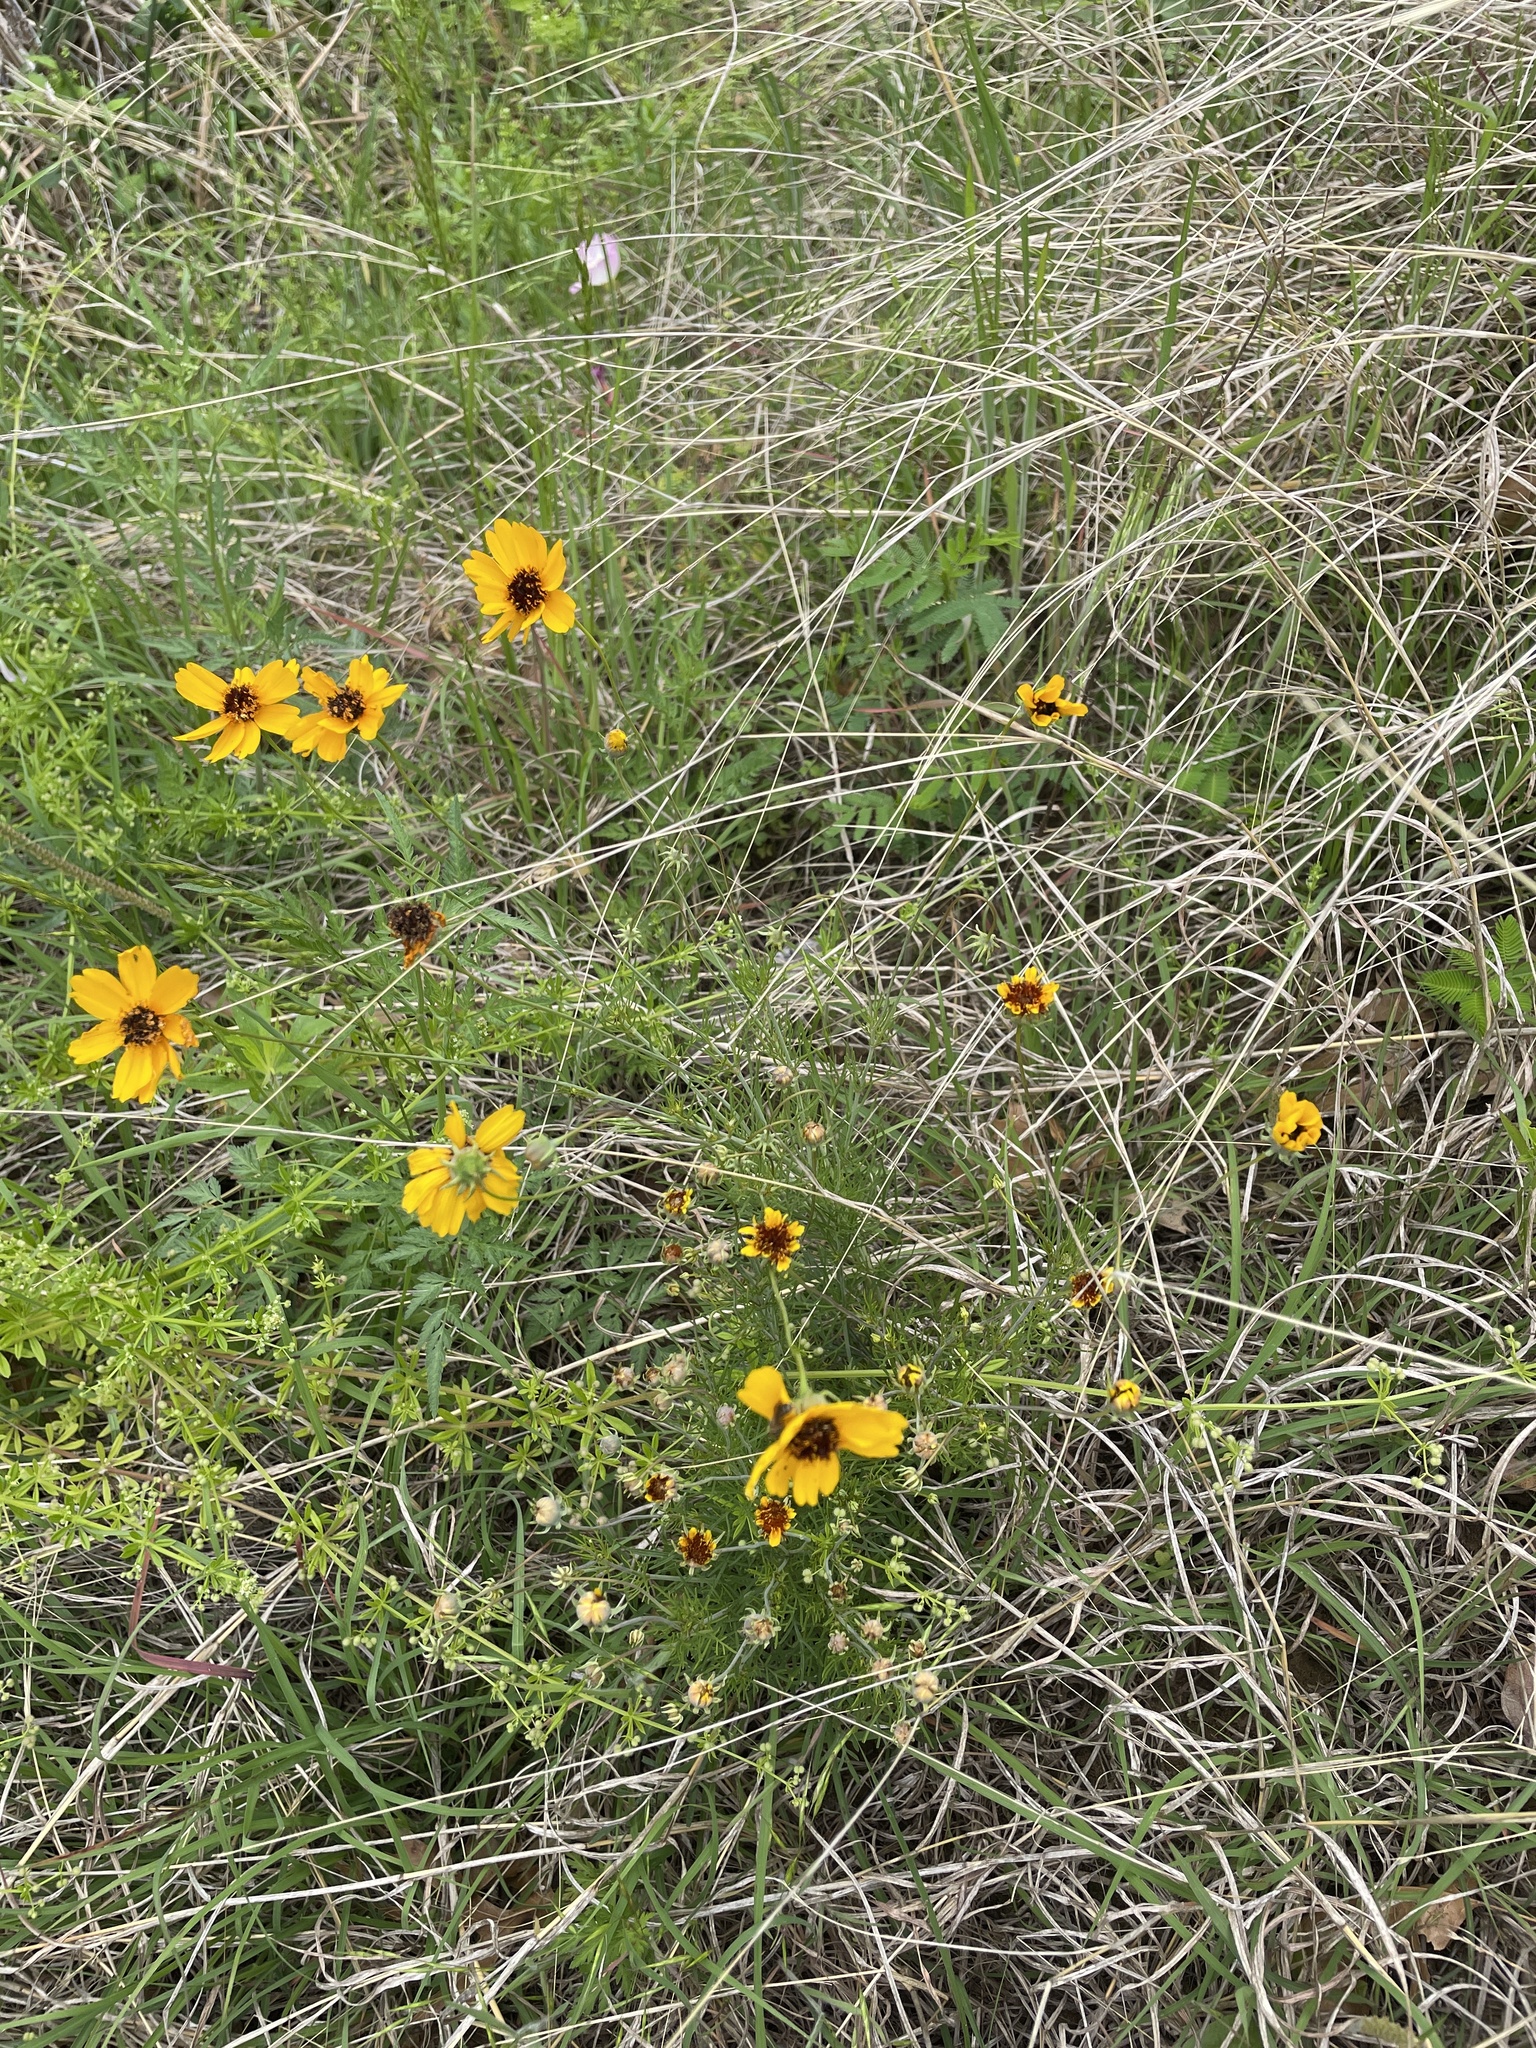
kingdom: Plantae
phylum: Tracheophyta
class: Magnoliopsida
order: Asterales
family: Asteraceae
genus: Thelesperma
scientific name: Thelesperma filifolium
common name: Stiff greenthread
